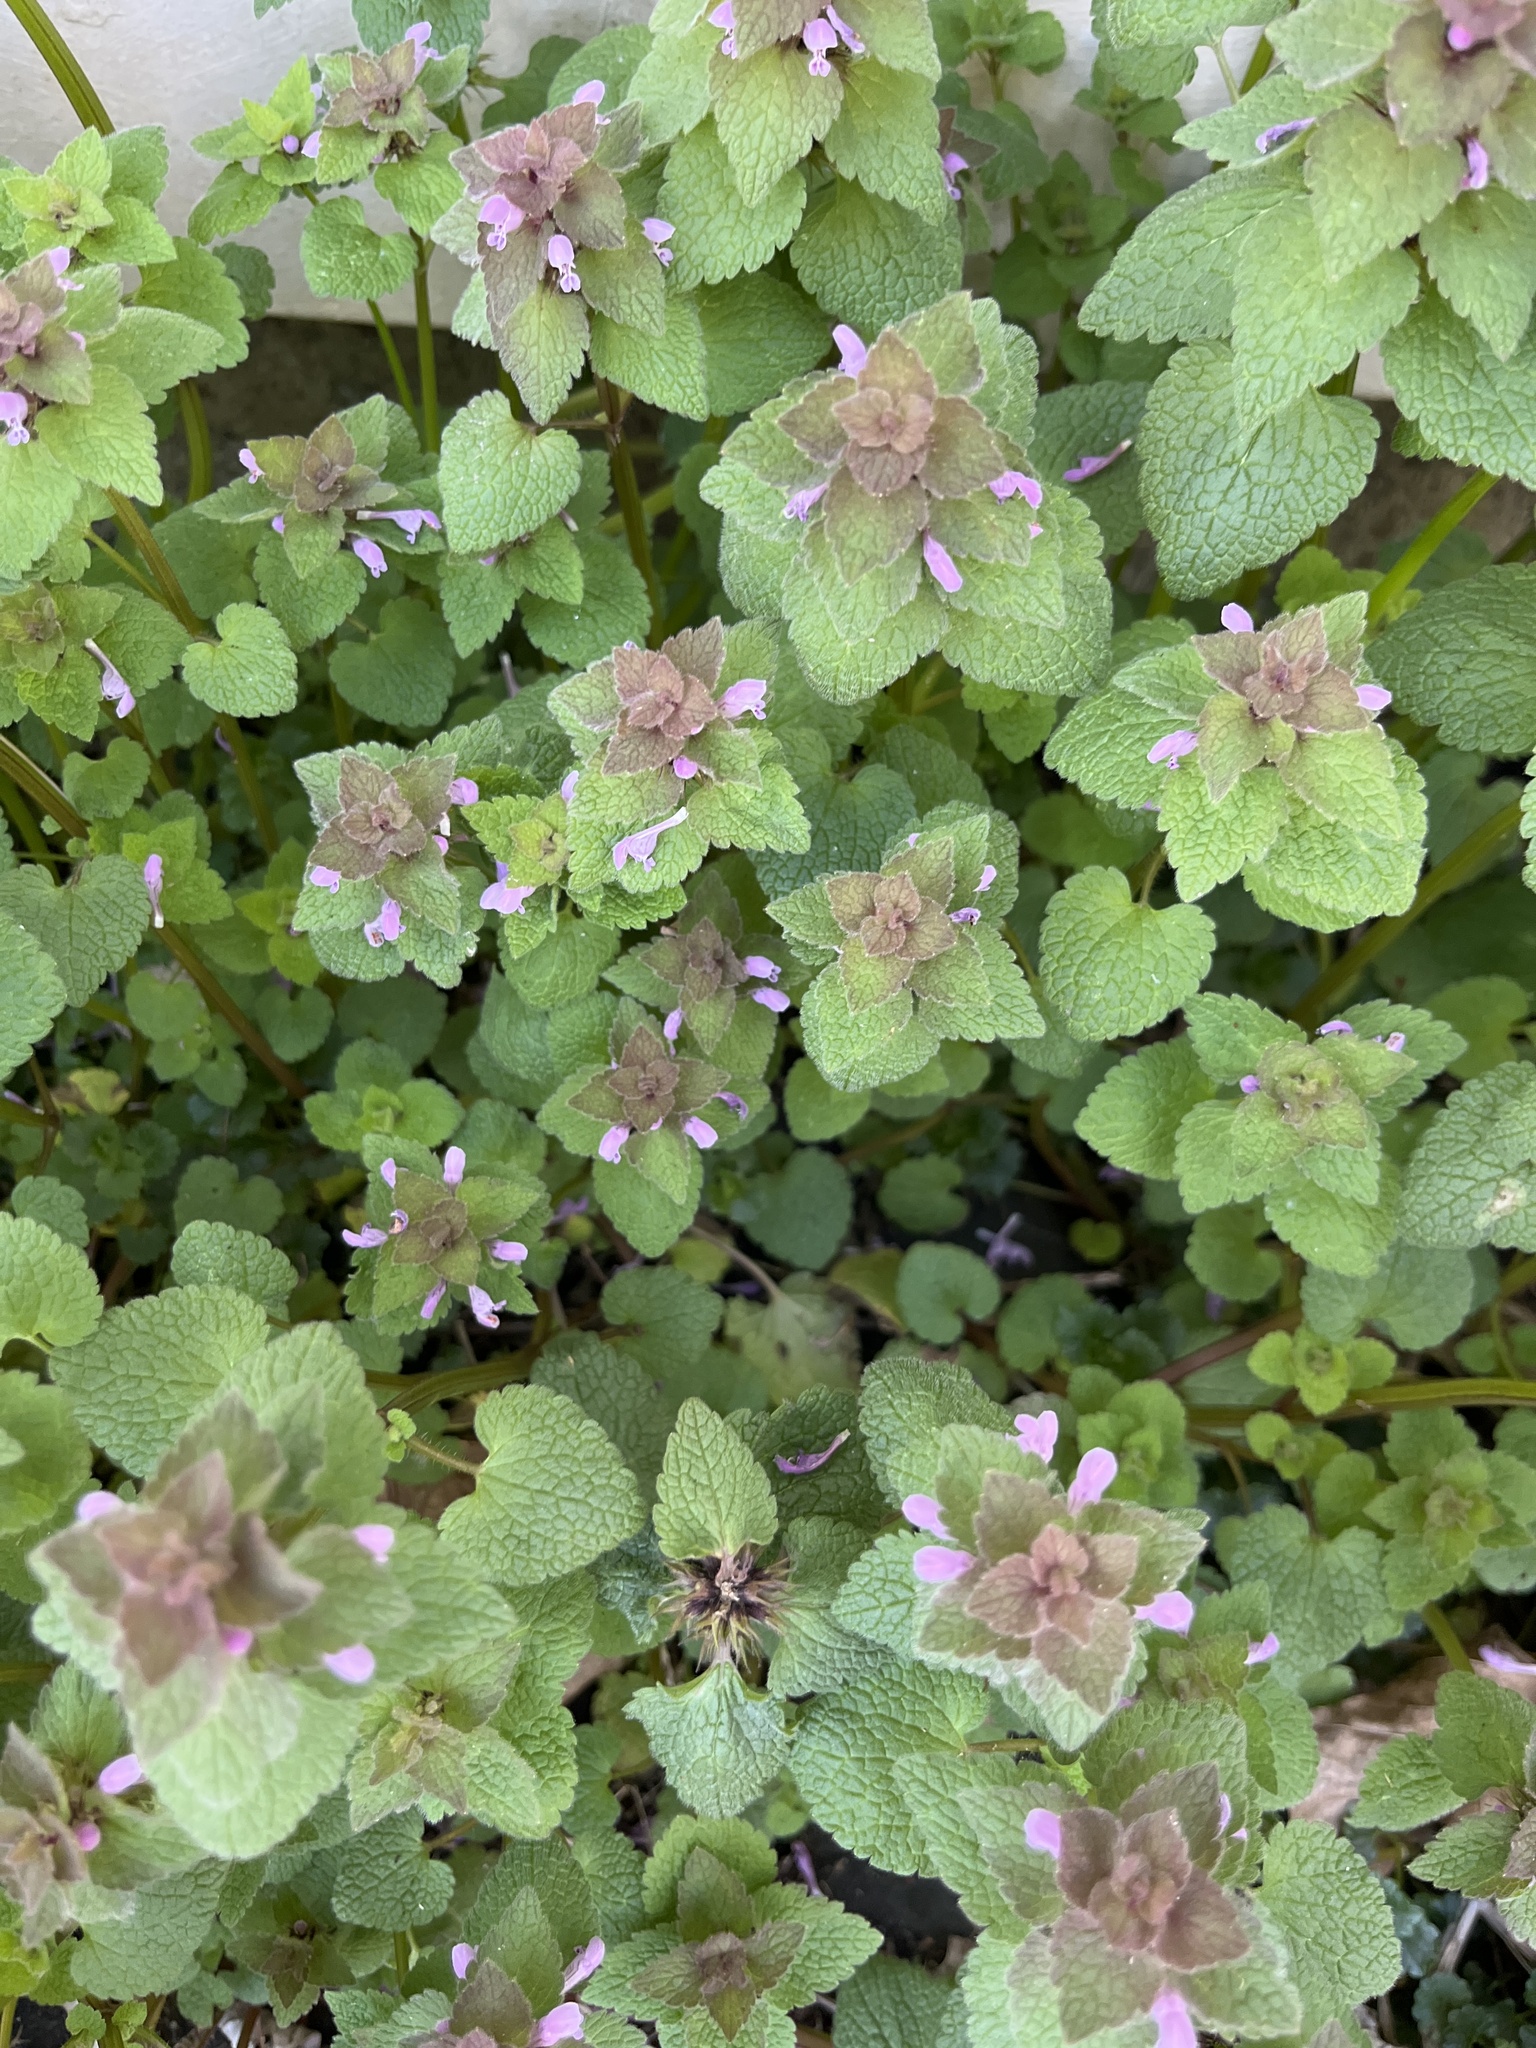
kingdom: Plantae
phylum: Tracheophyta
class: Magnoliopsida
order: Lamiales
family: Lamiaceae
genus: Lamium
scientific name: Lamium purpureum
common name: Red dead-nettle
